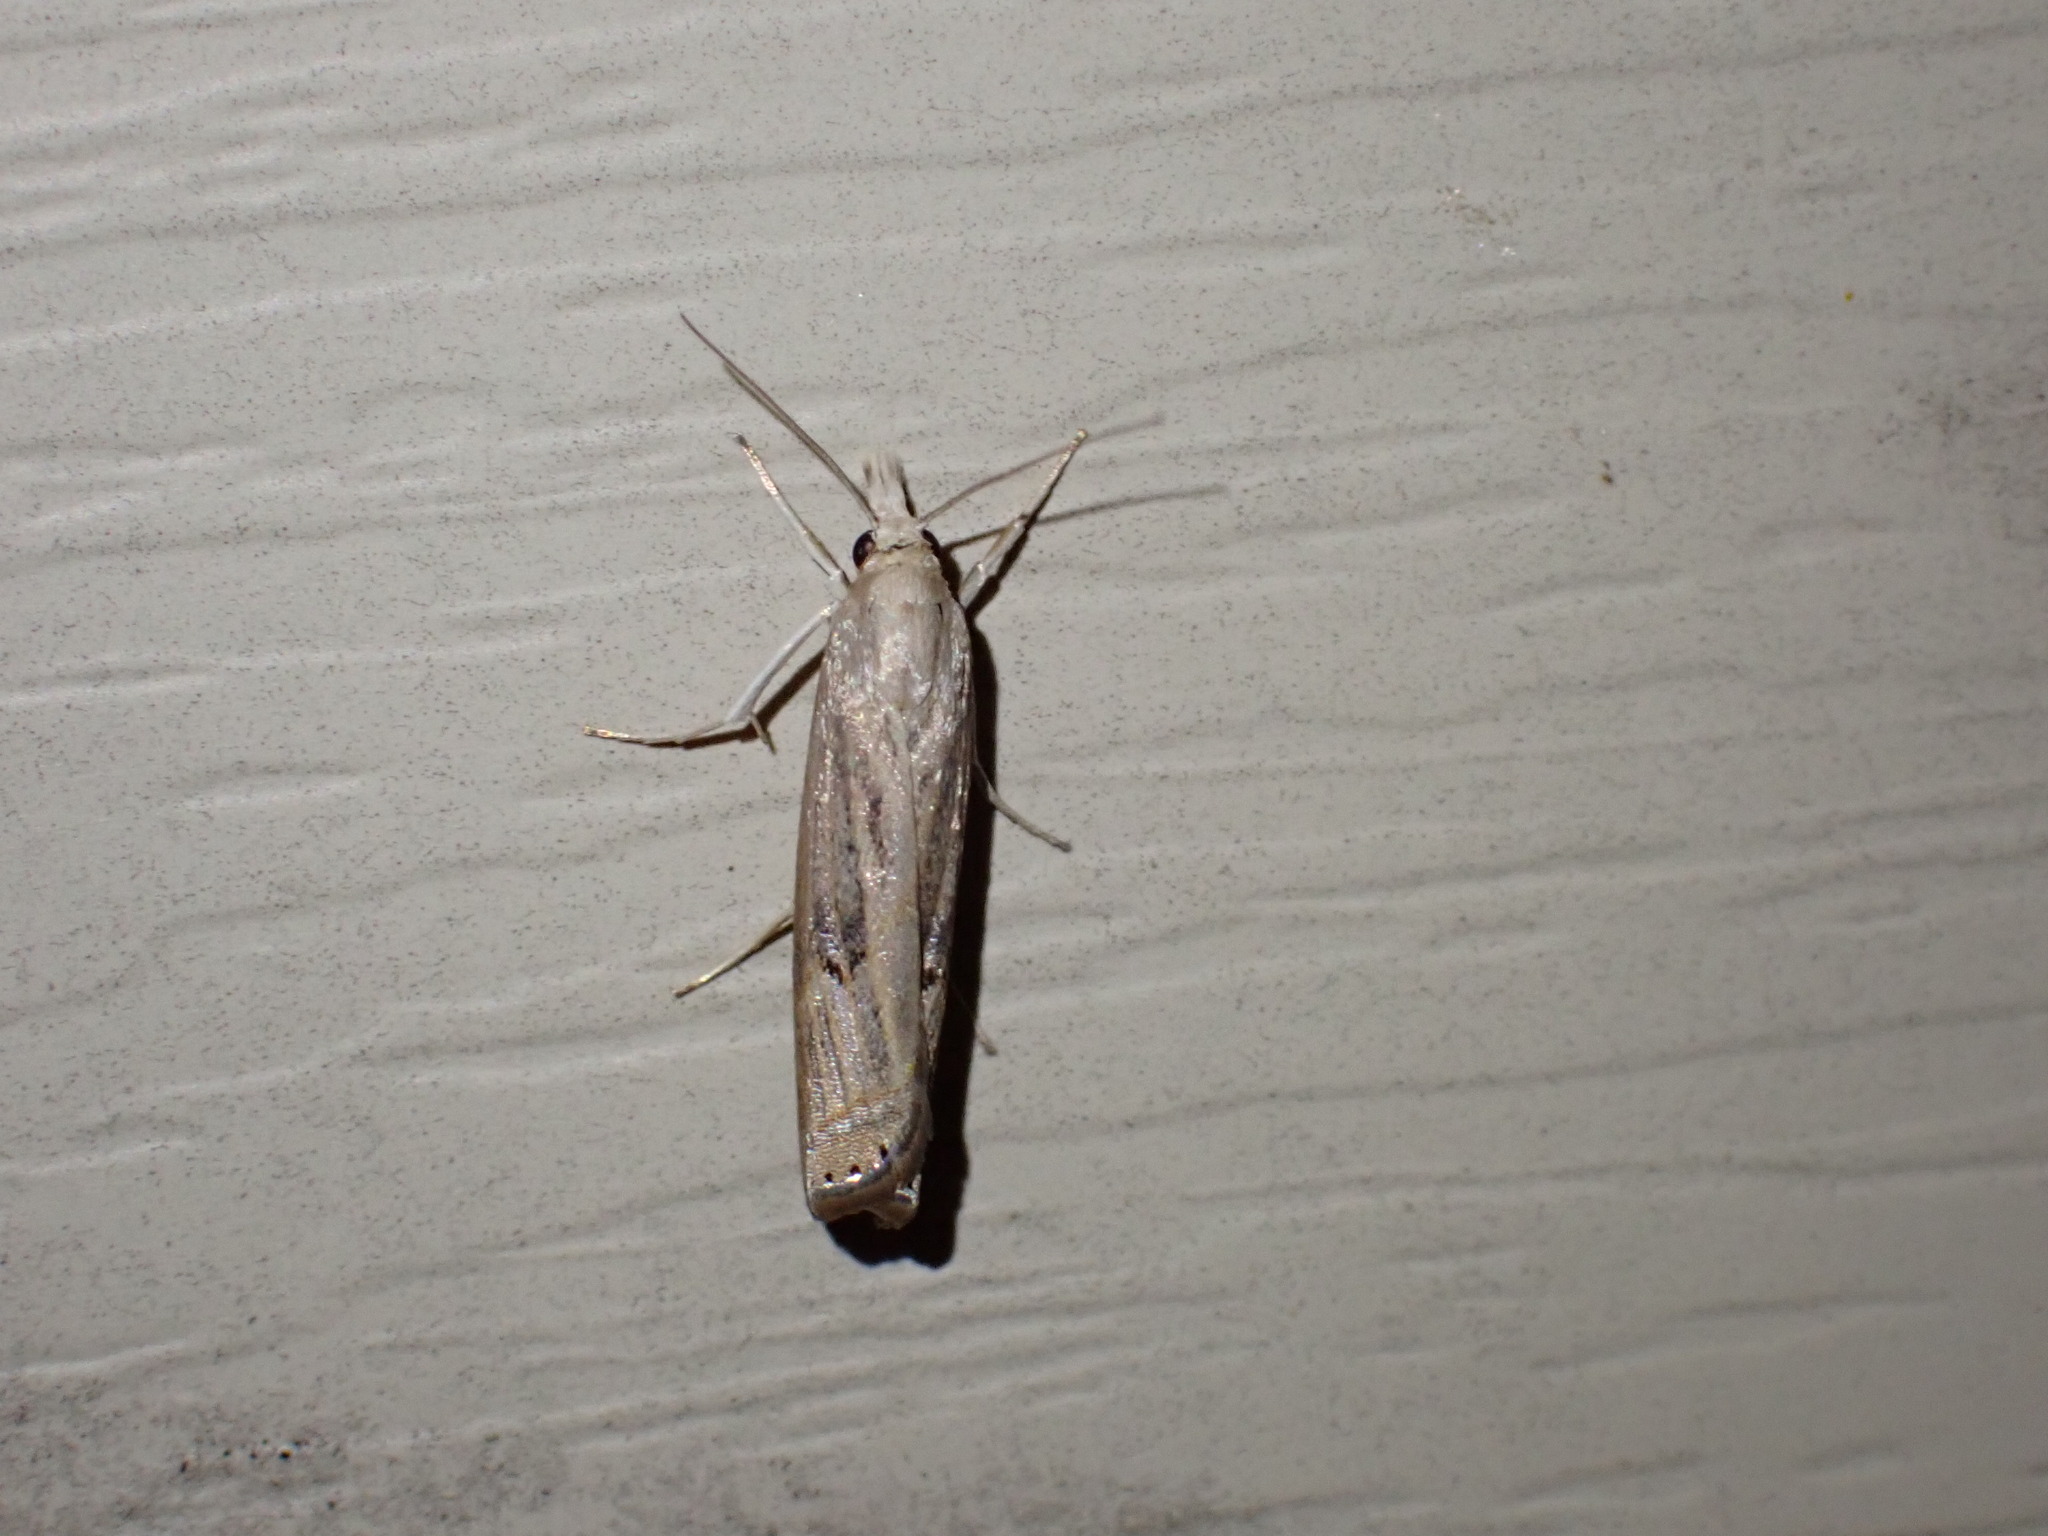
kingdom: Animalia
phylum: Arthropoda
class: Insecta
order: Lepidoptera
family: Crambidae
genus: Parapediasia
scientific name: Parapediasia teterellus
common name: Bluegrass webworm moth
